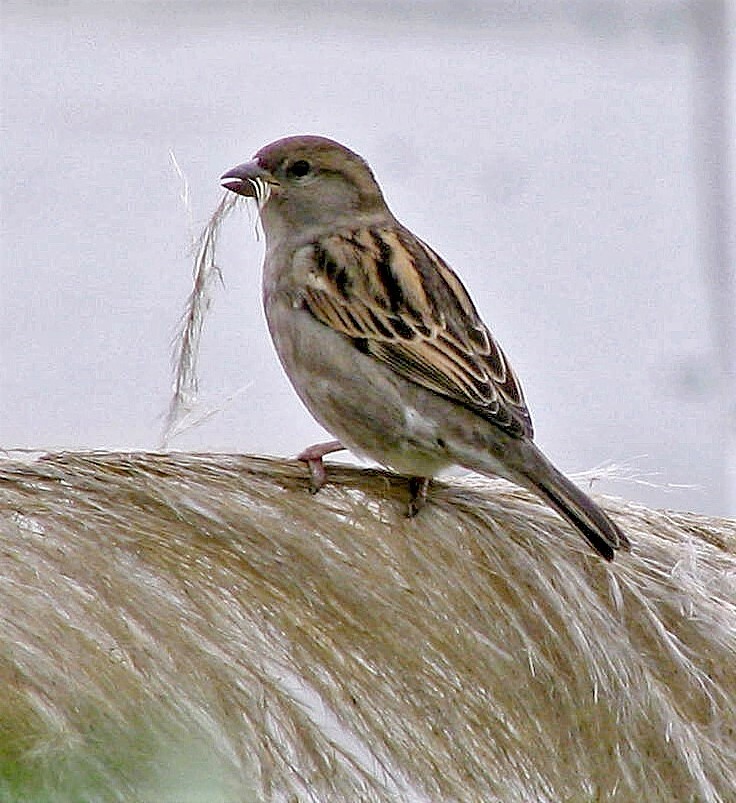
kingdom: Animalia
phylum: Chordata
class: Aves
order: Passeriformes
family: Passeridae
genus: Passer
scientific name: Passer domesticus
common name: House sparrow
